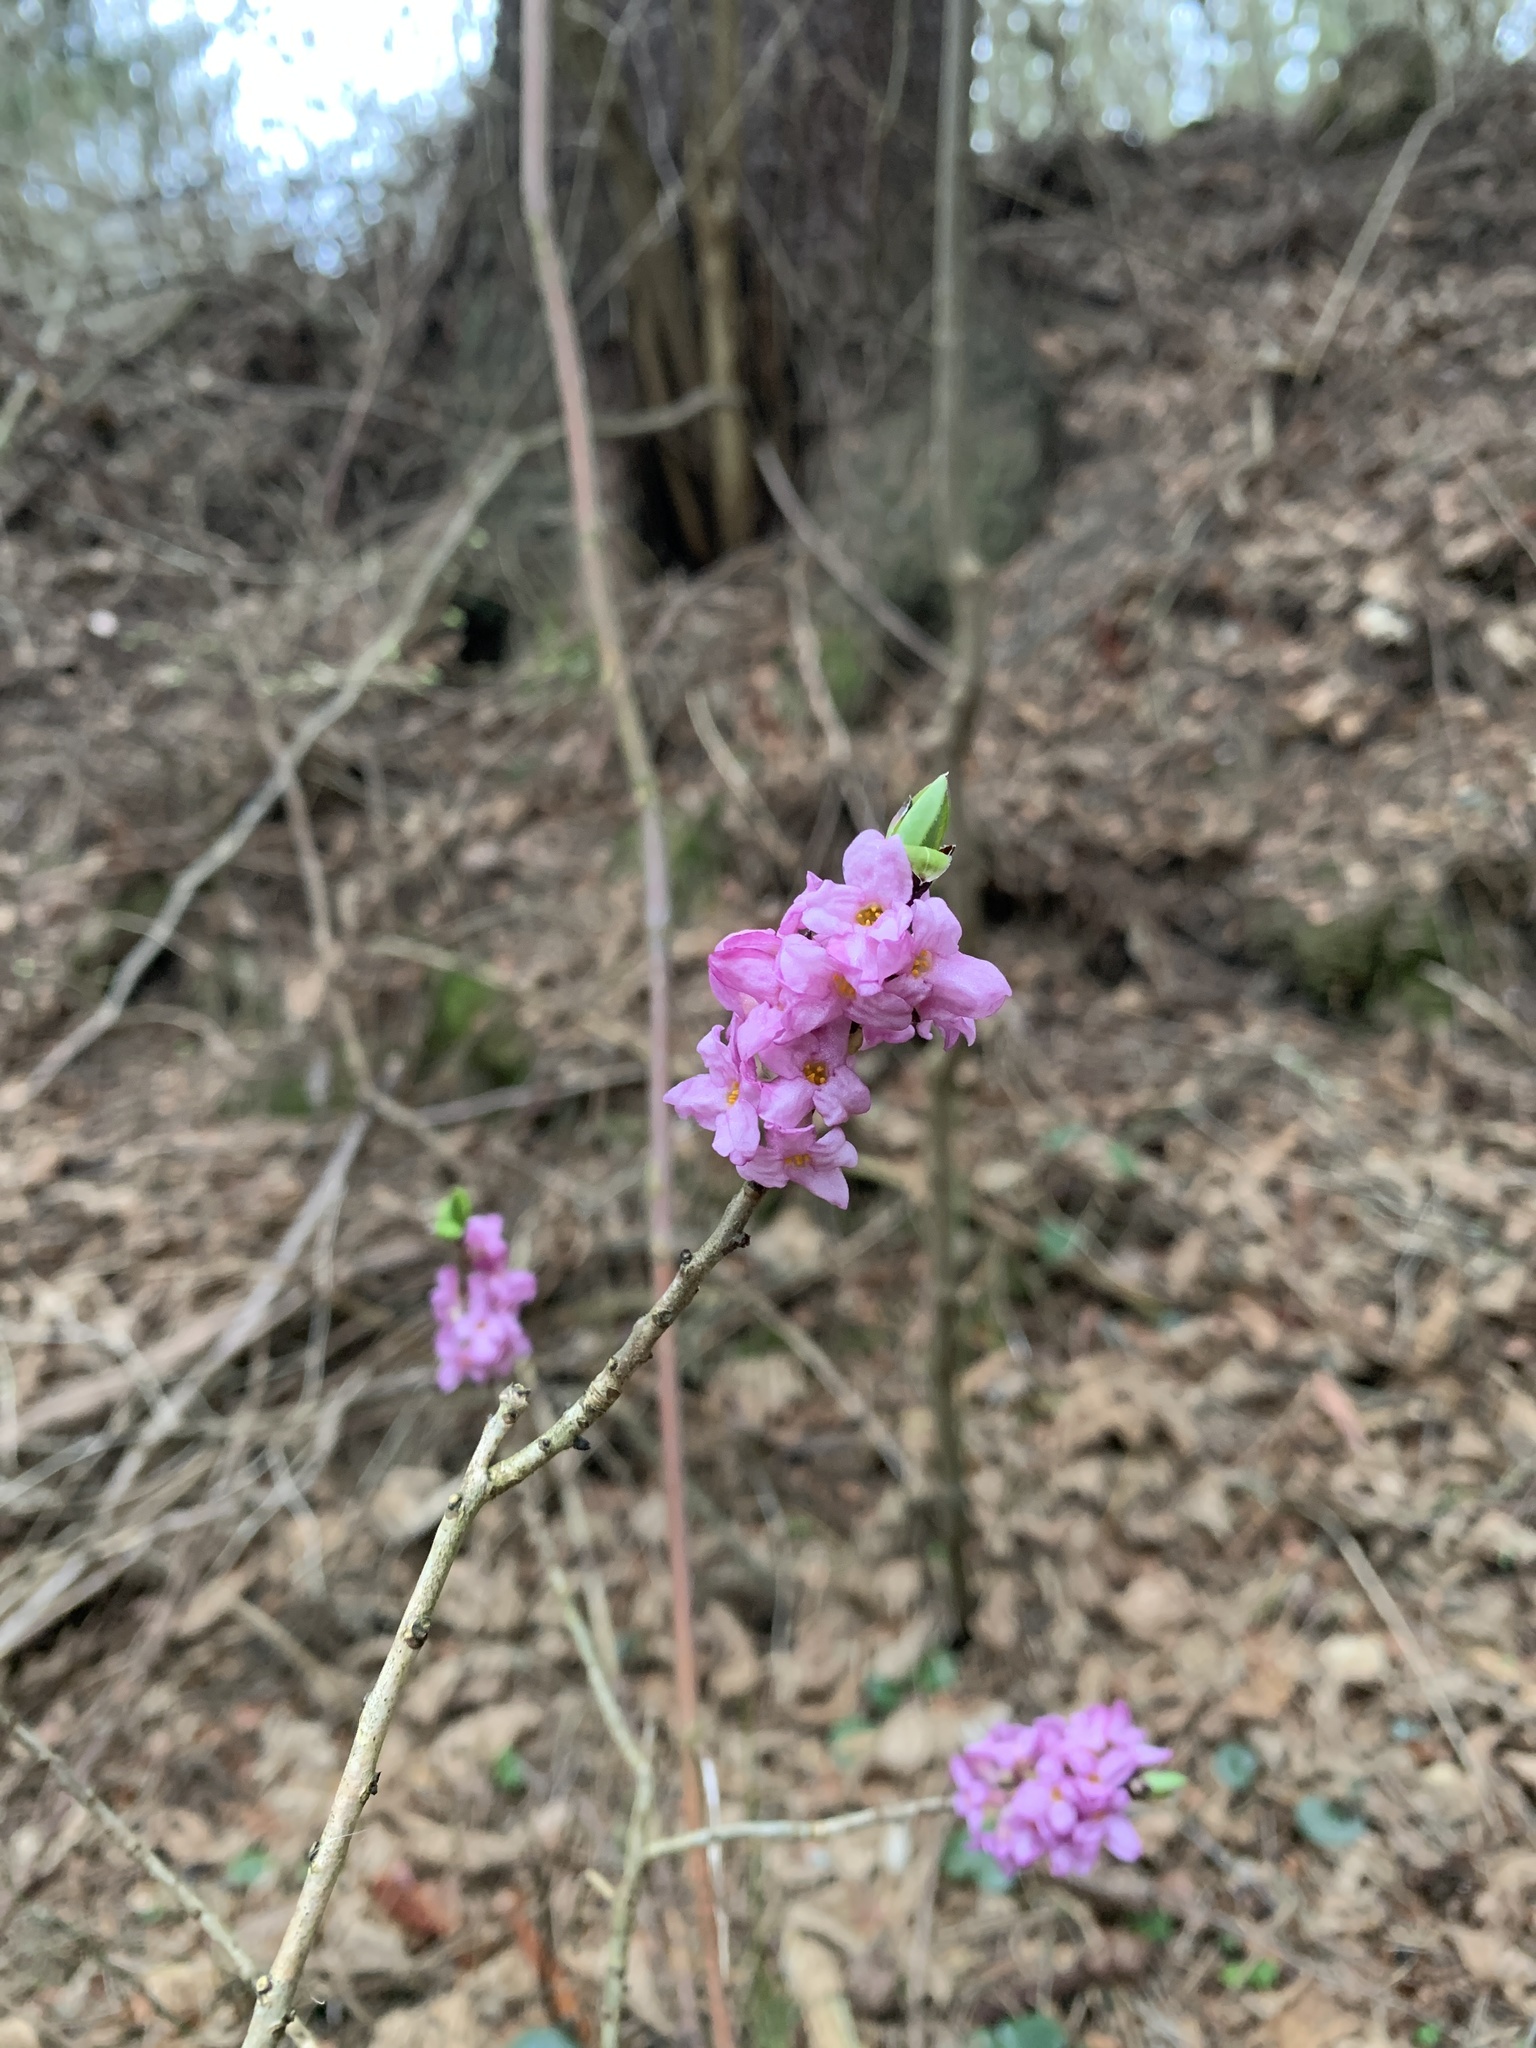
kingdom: Plantae
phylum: Tracheophyta
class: Magnoliopsida
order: Malvales
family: Thymelaeaceae
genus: Daphne
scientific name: Daphne mezereum
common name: Mezereon
